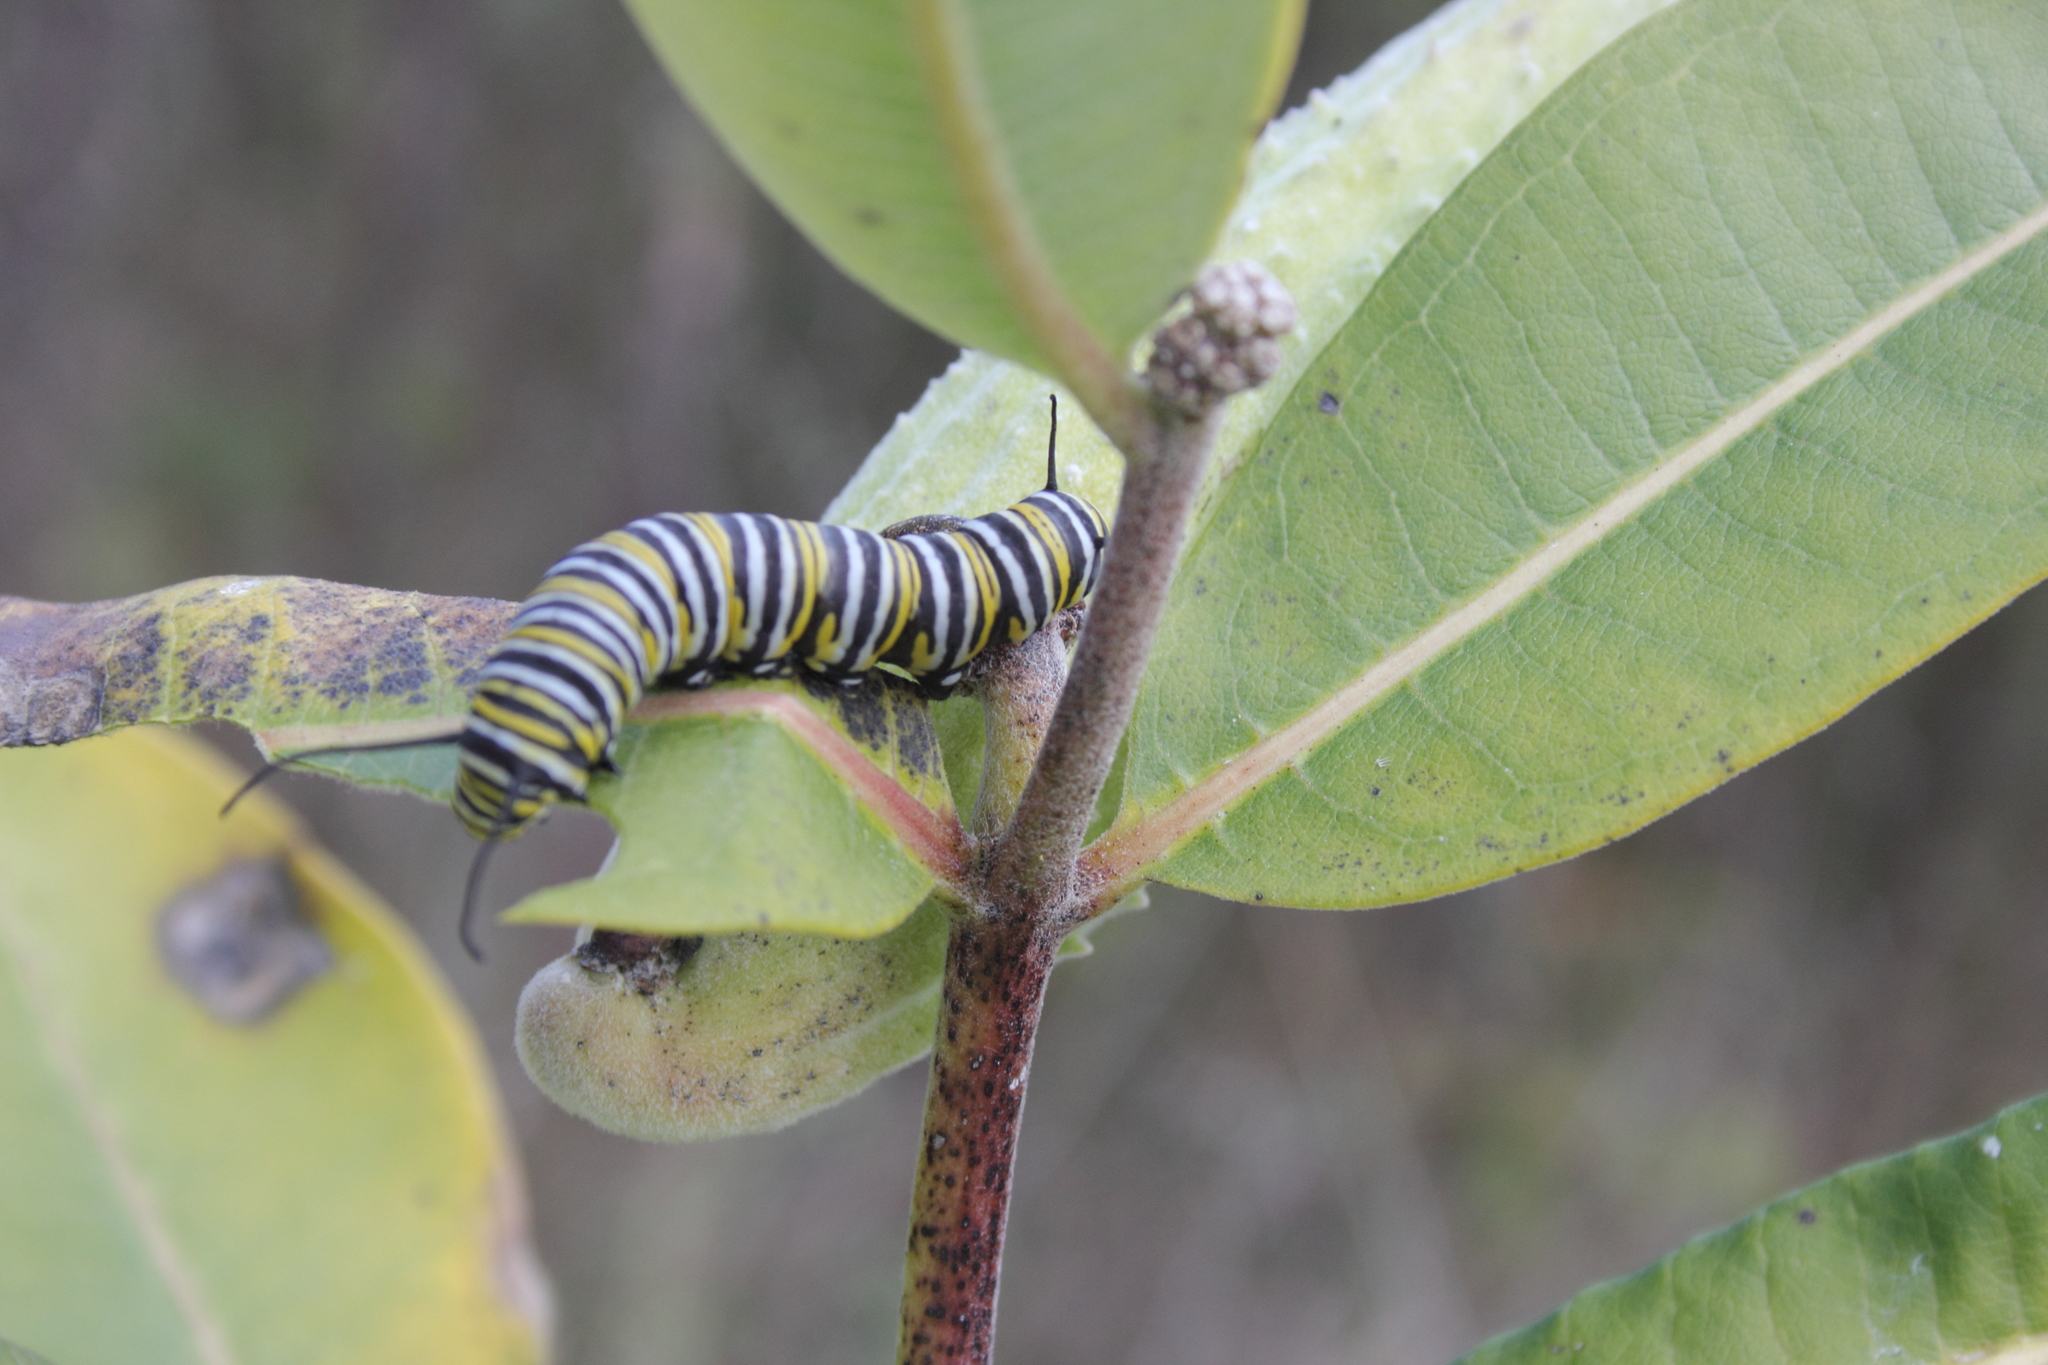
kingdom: Animalia
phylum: Arthropoda
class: Insecta
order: Lepidoptera
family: Nymphalidae
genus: Danaus
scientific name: Danaus plexippus
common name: Monarch
